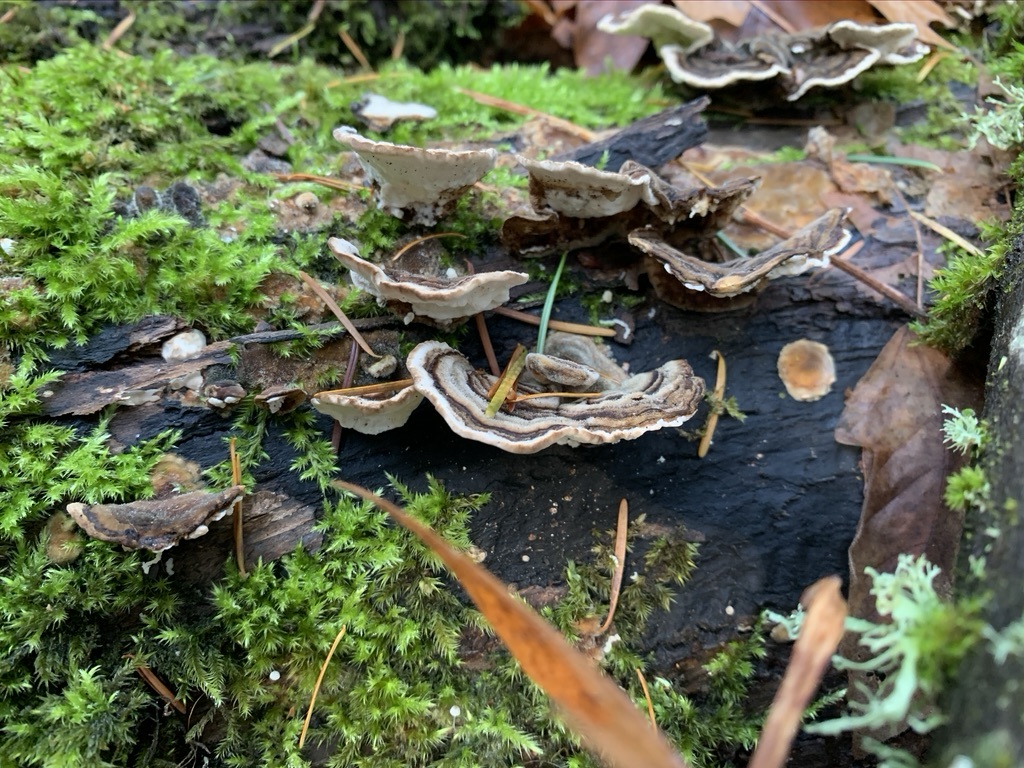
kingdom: Fungi
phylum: Basidiomycota
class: Agaricomycetes
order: Polyporales
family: Polyporaceae
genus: Trametes
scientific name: Trametes versicolor
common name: Turkeytail
